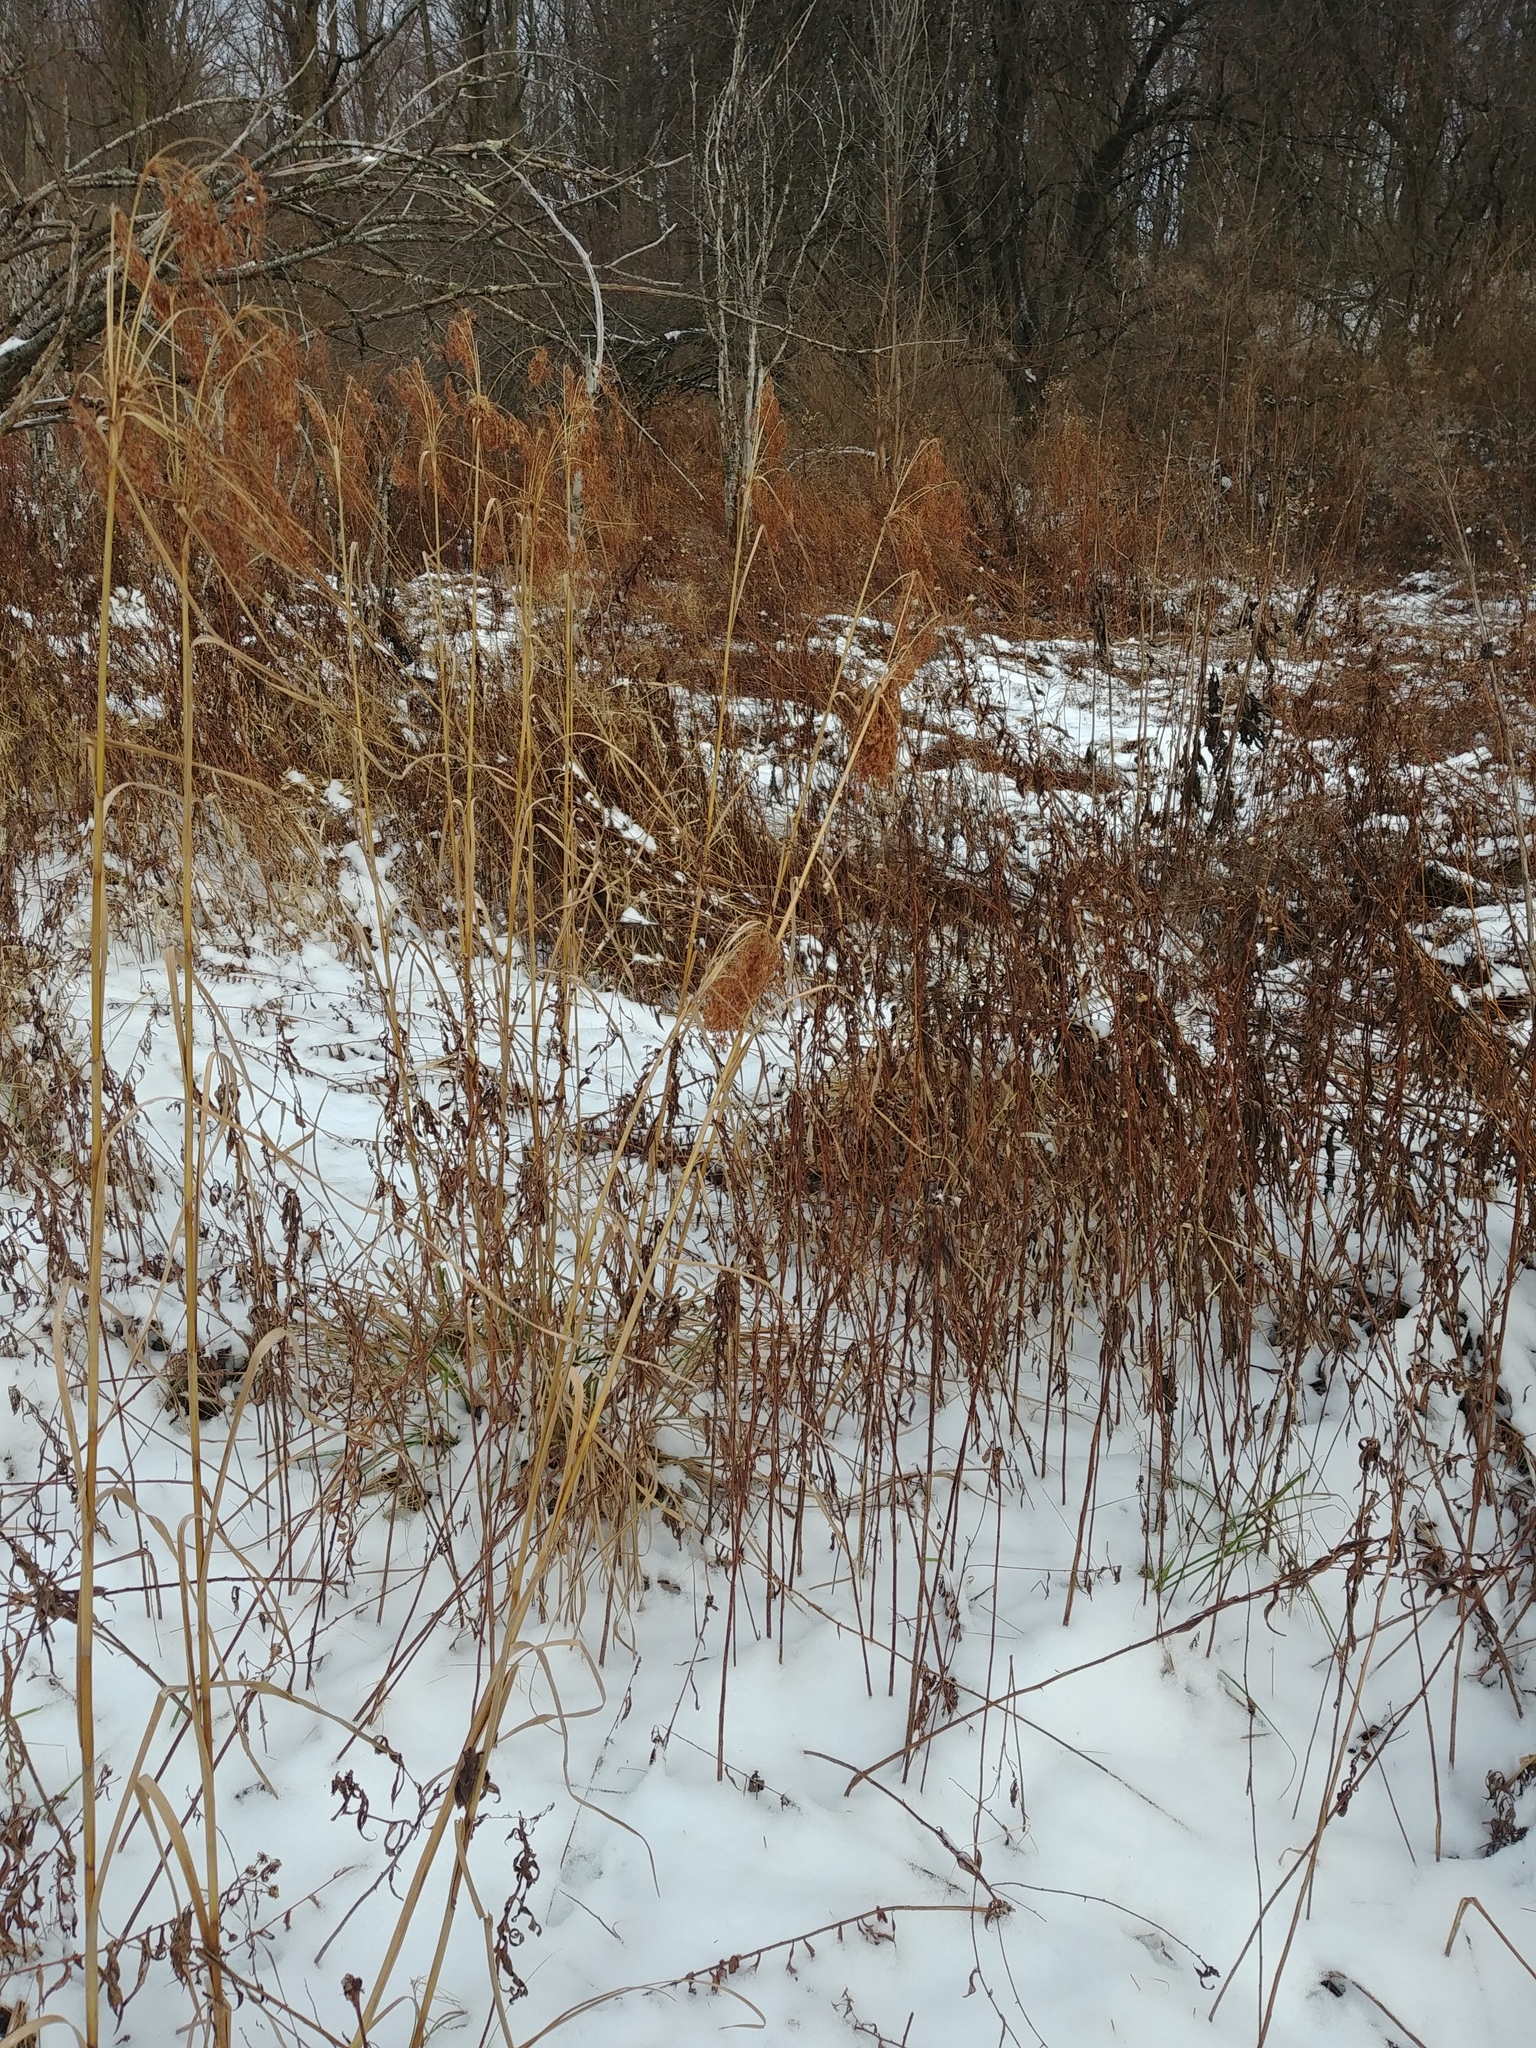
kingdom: Plantae
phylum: Tracheophyta
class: Liliopsida
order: Poales
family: Cyperaceae
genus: Scirpus
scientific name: Scirpus cyperinus
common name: Black-sheathed bulrush
